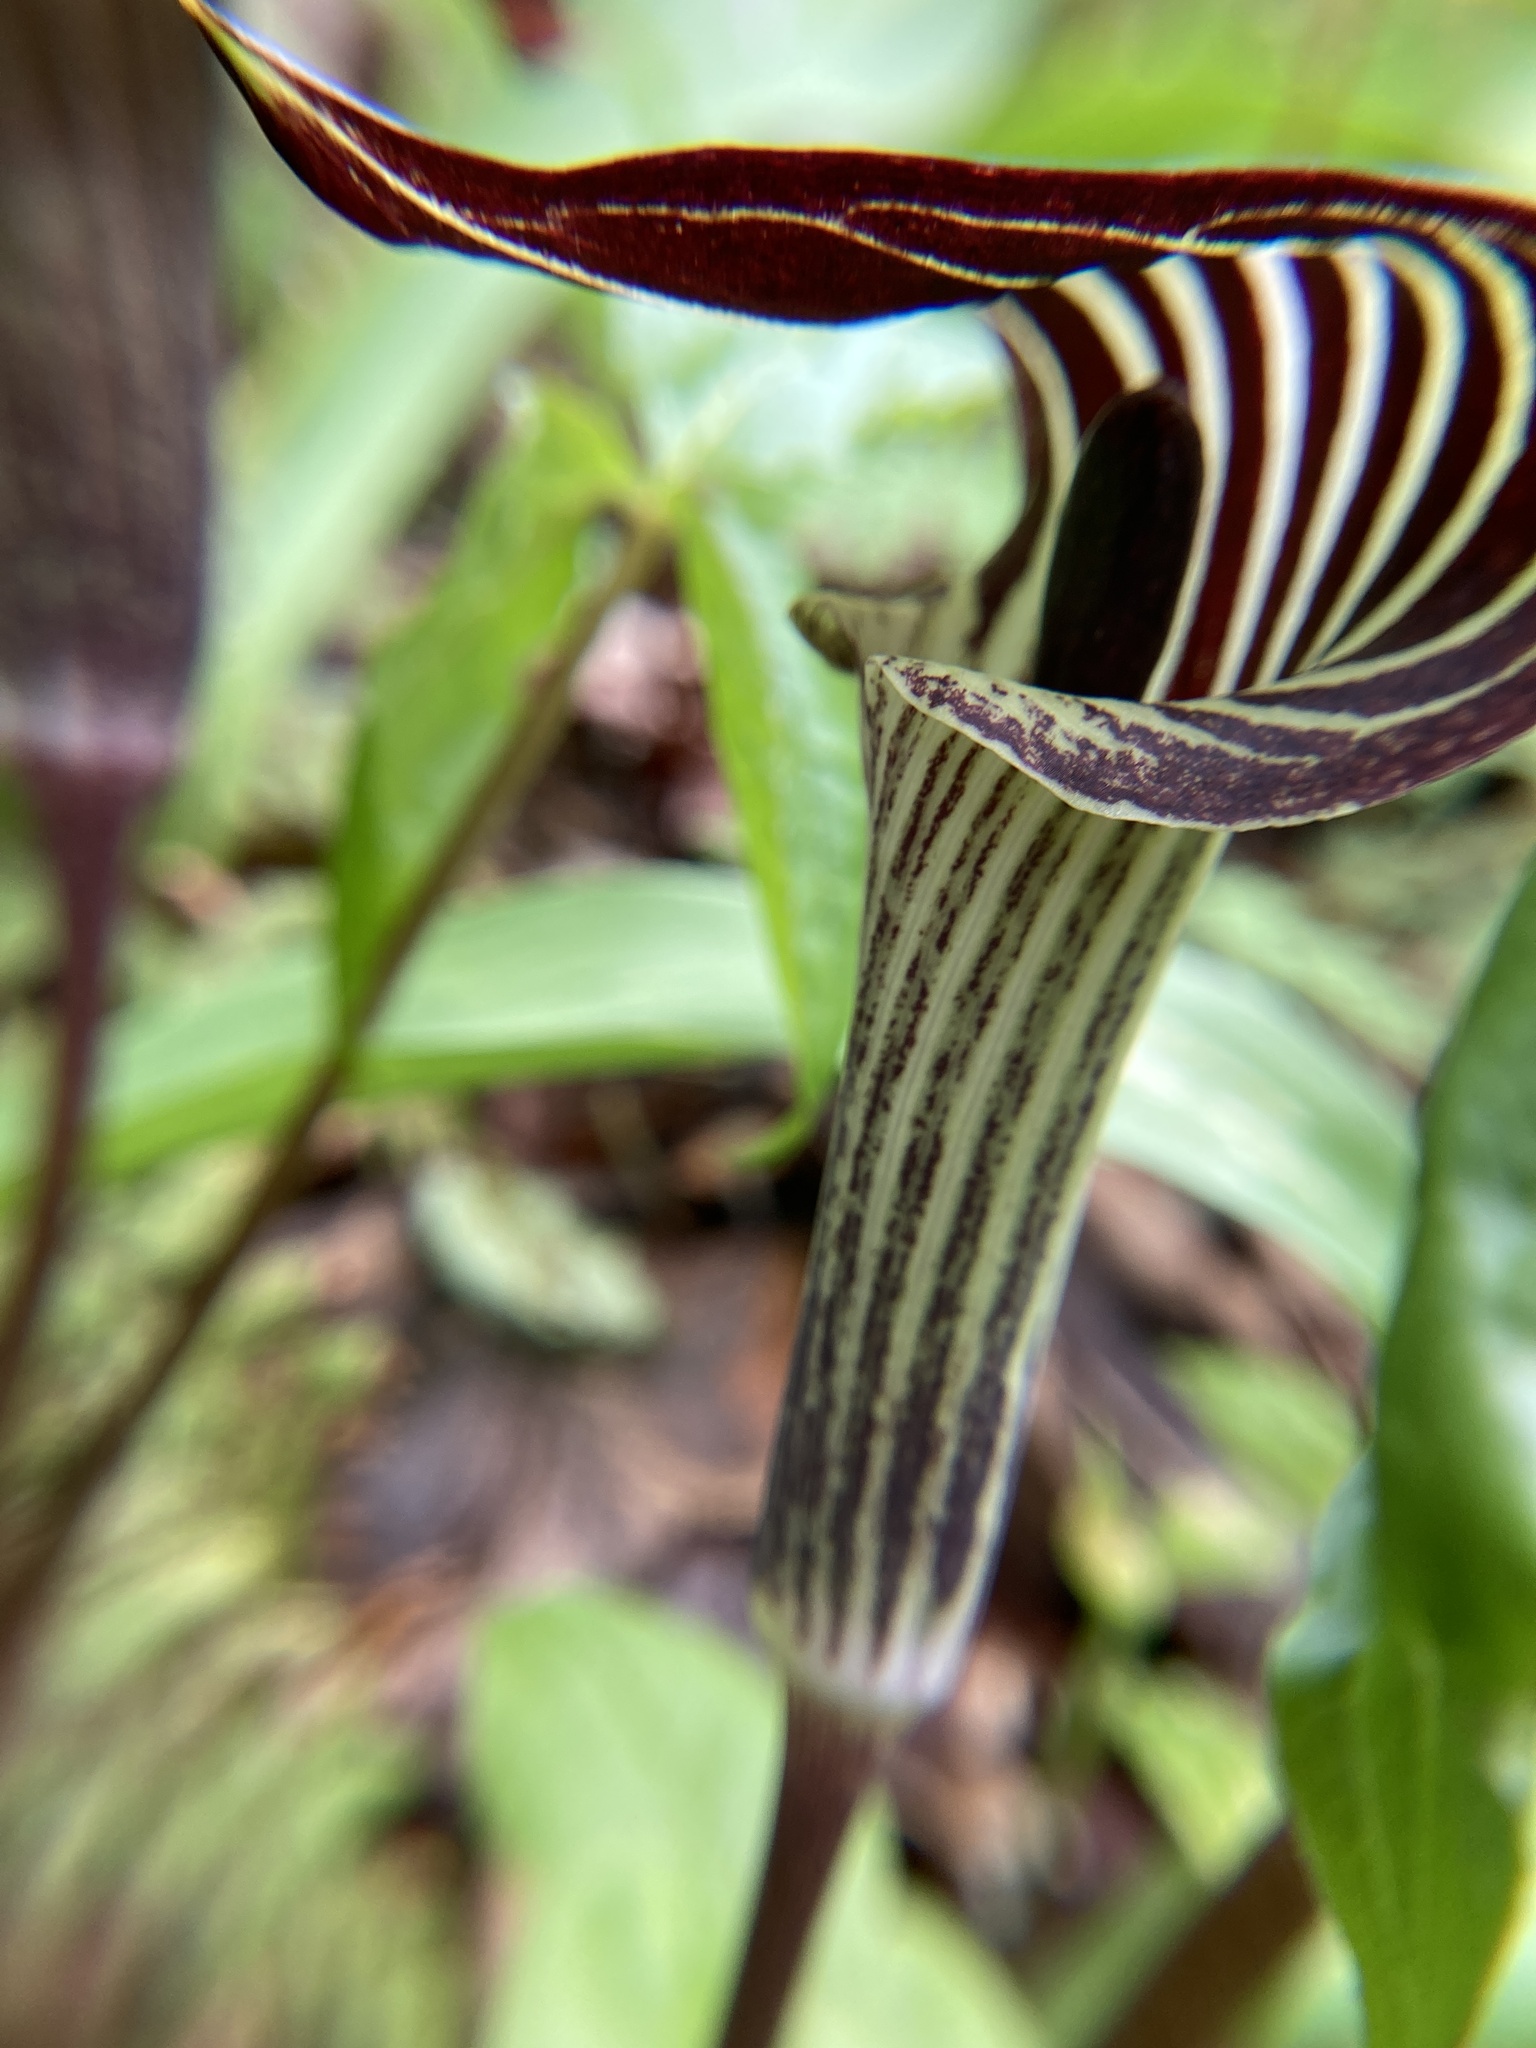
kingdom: Plantae
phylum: Tracheophyta
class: Liliopsida
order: Alismatales
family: Araceae
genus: Arisaema
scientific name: Arisaema triphyllum
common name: Jack-in-the-pulpit
